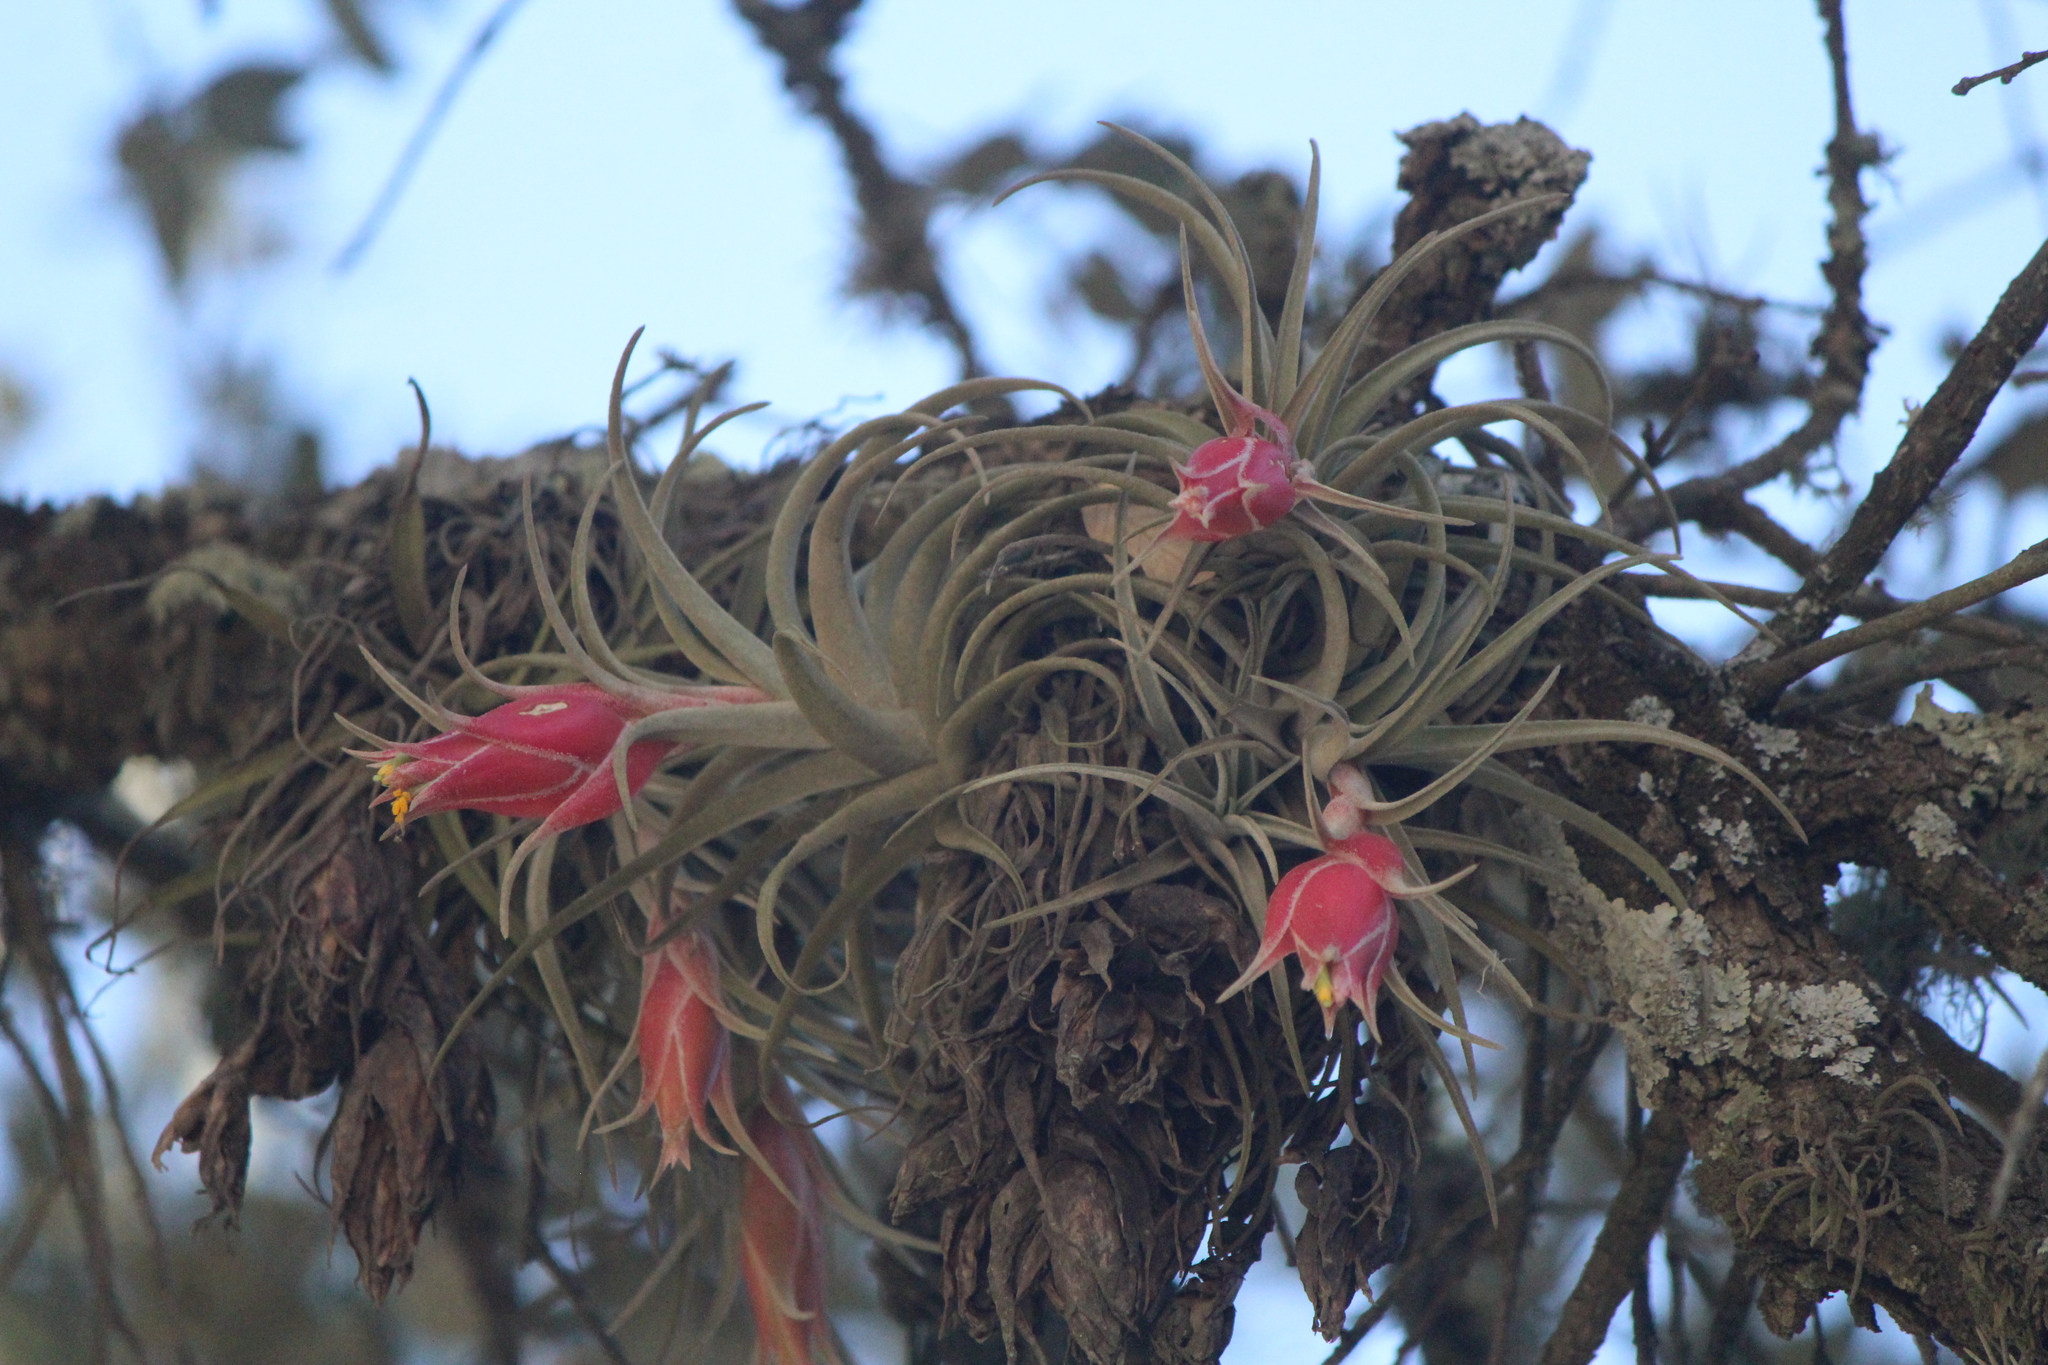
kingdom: Plantae
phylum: Tracheophyta
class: Liliopsida
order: Poales
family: Bromeliaceae
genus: Tillandsia
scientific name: Tillandsia erubescens
